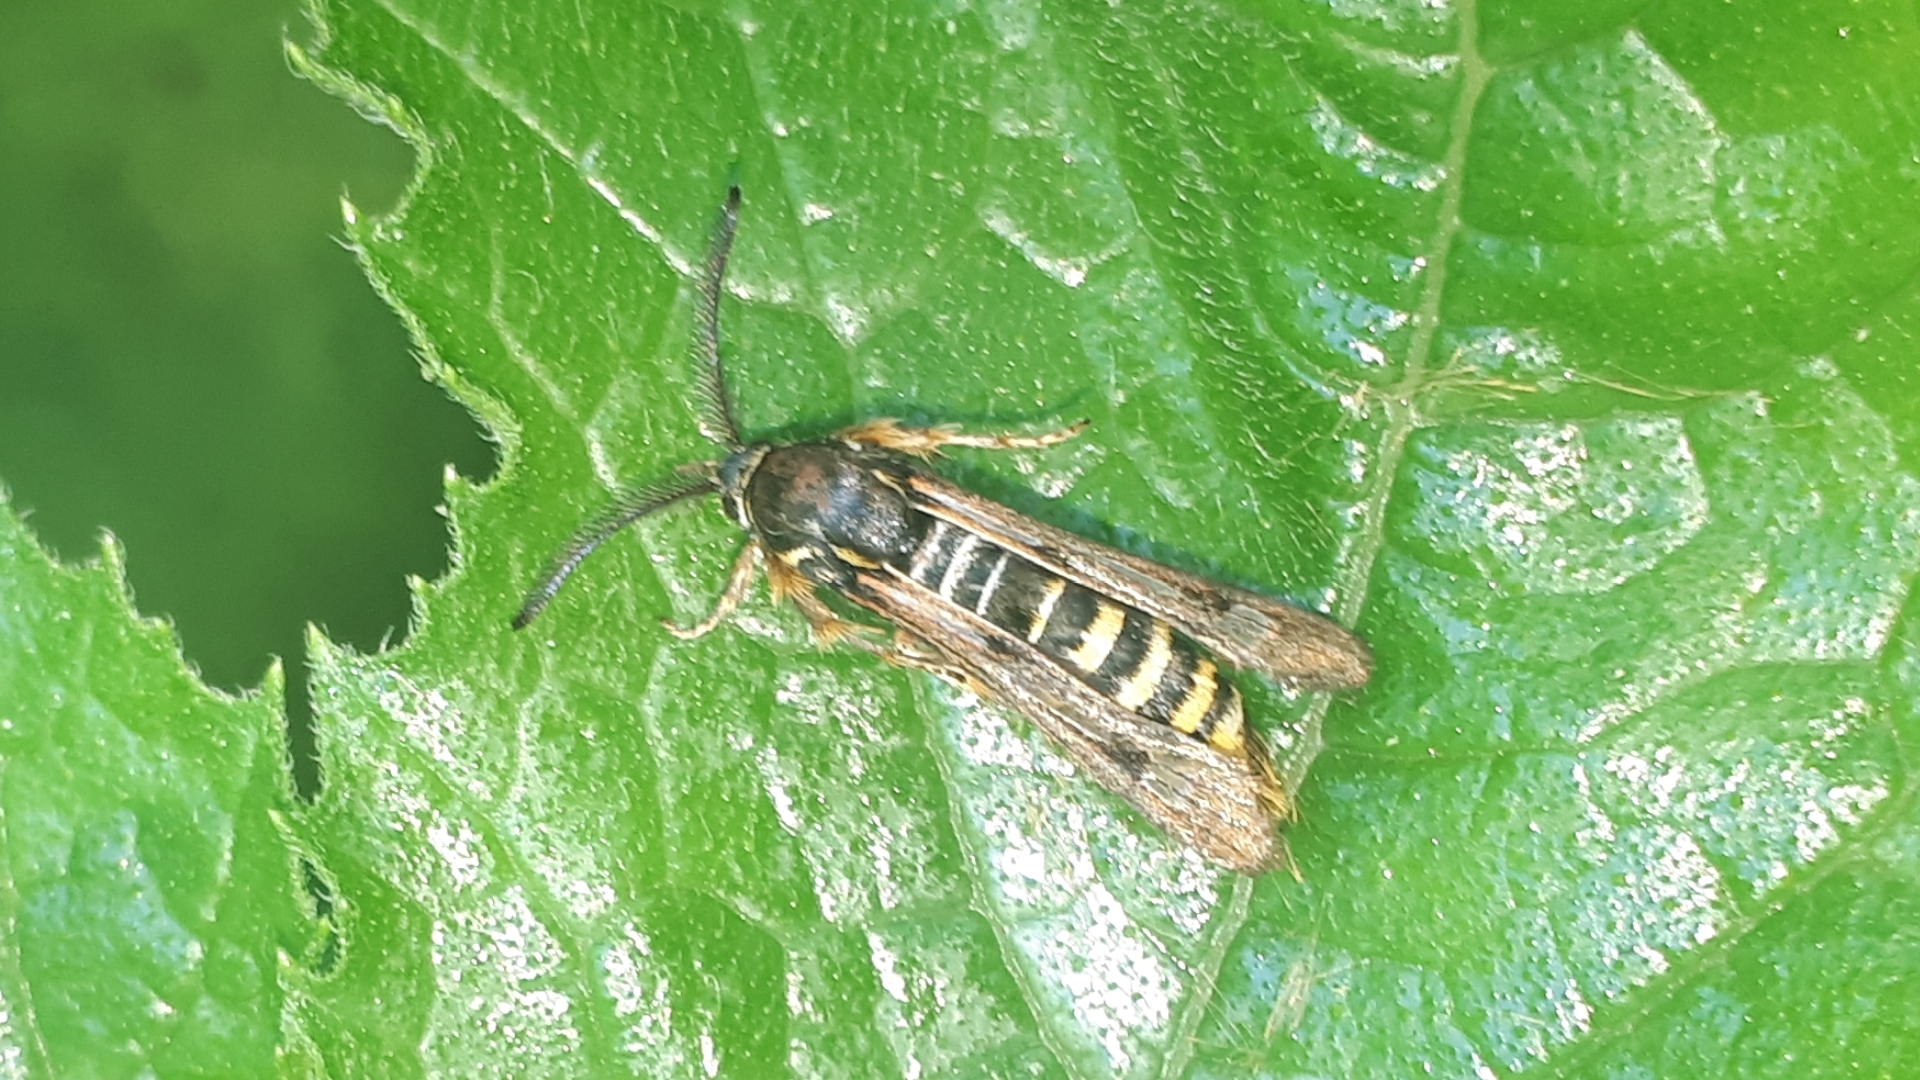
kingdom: Animalia
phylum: Arthropoda
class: Insecta
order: Lepidoptera
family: Sesiidae
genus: Pennisetia
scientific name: Pennisetia hylaeiformis
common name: Raspberry clearwing
